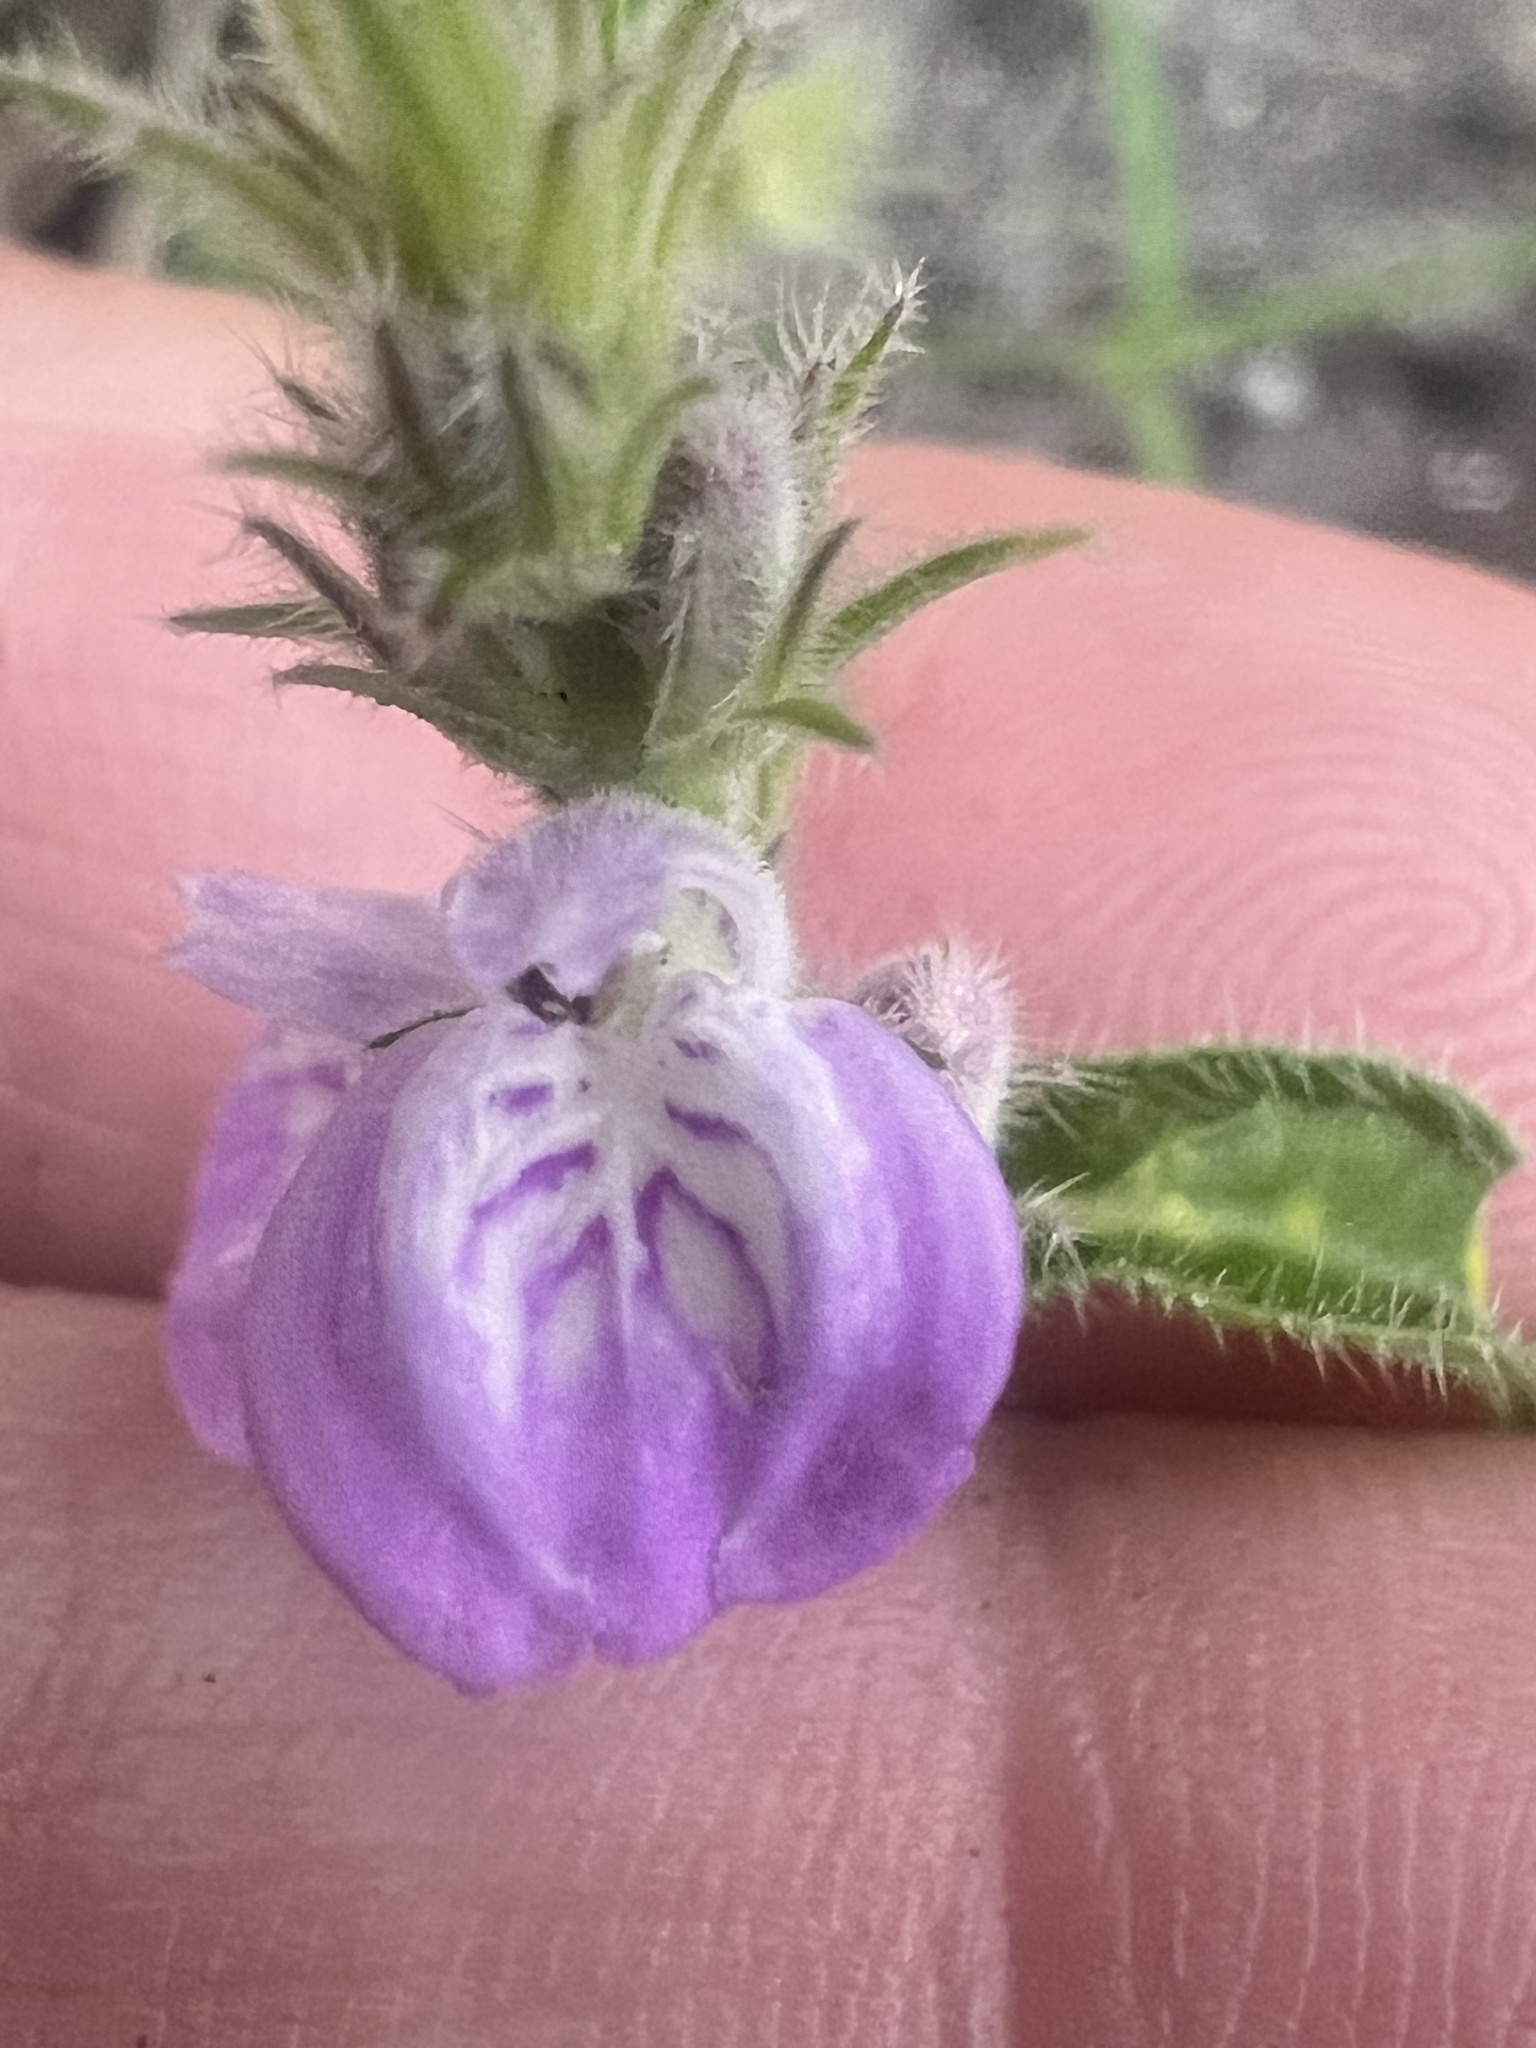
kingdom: Plantae
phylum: Tracheophyta
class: Magnoliopsida
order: Lamiales
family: Acanthaceae
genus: Rostellularia
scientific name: Rostellularia adscendens
